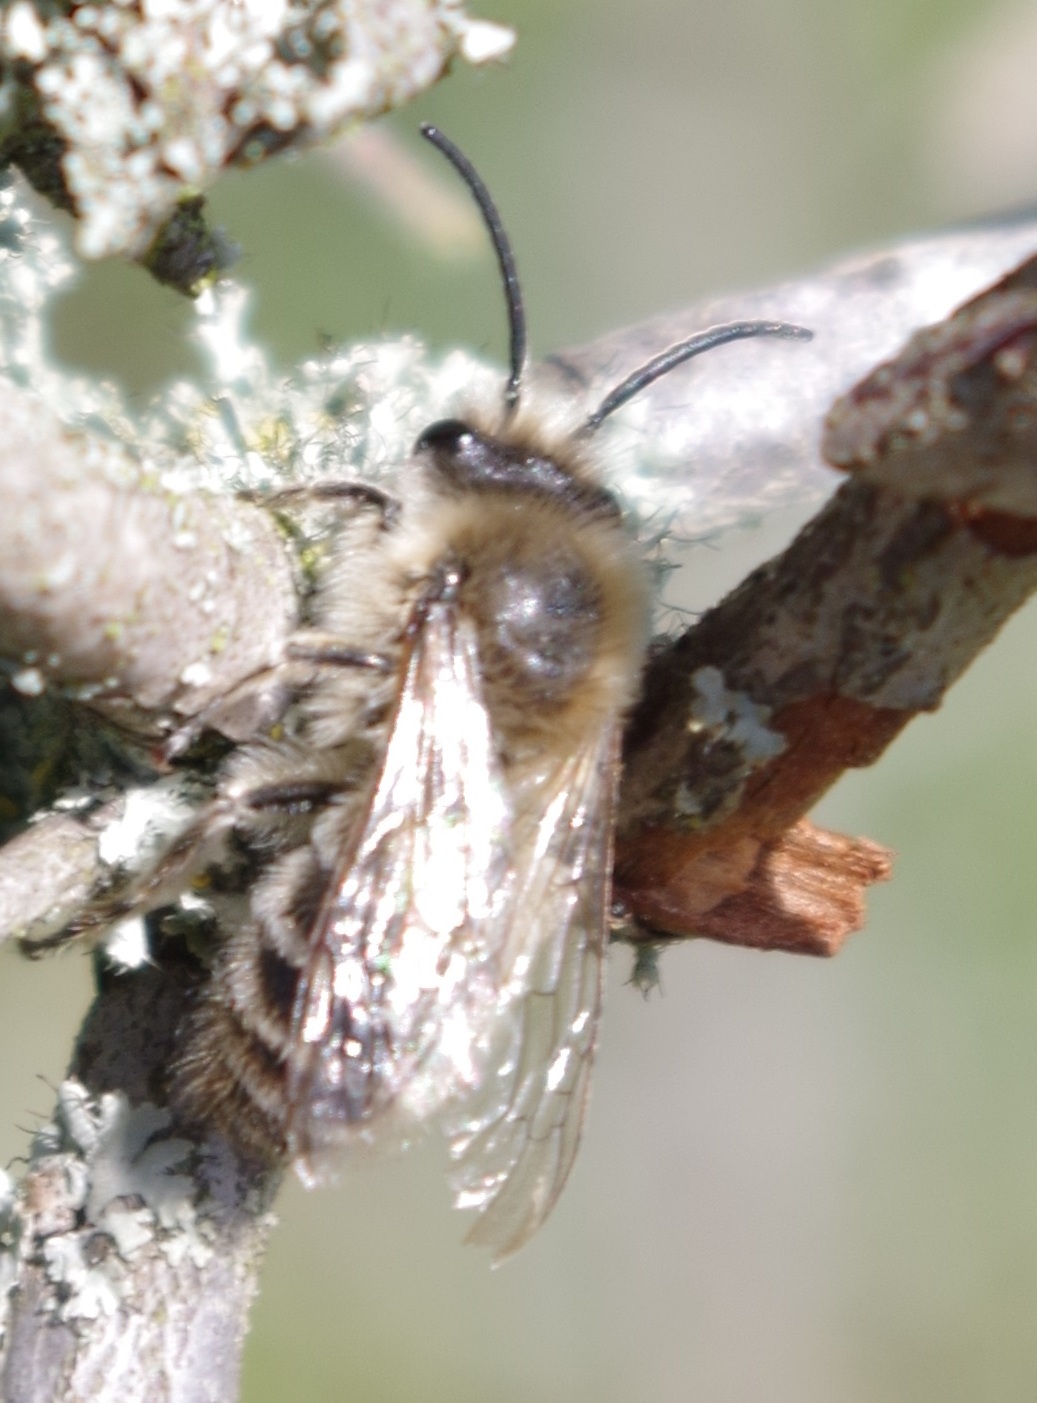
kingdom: Animalia
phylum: Arthropoda
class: Insecta
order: Hymenoptera
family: Colletidae
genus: Colletes
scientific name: Colletes cunicularius
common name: Early colletes
